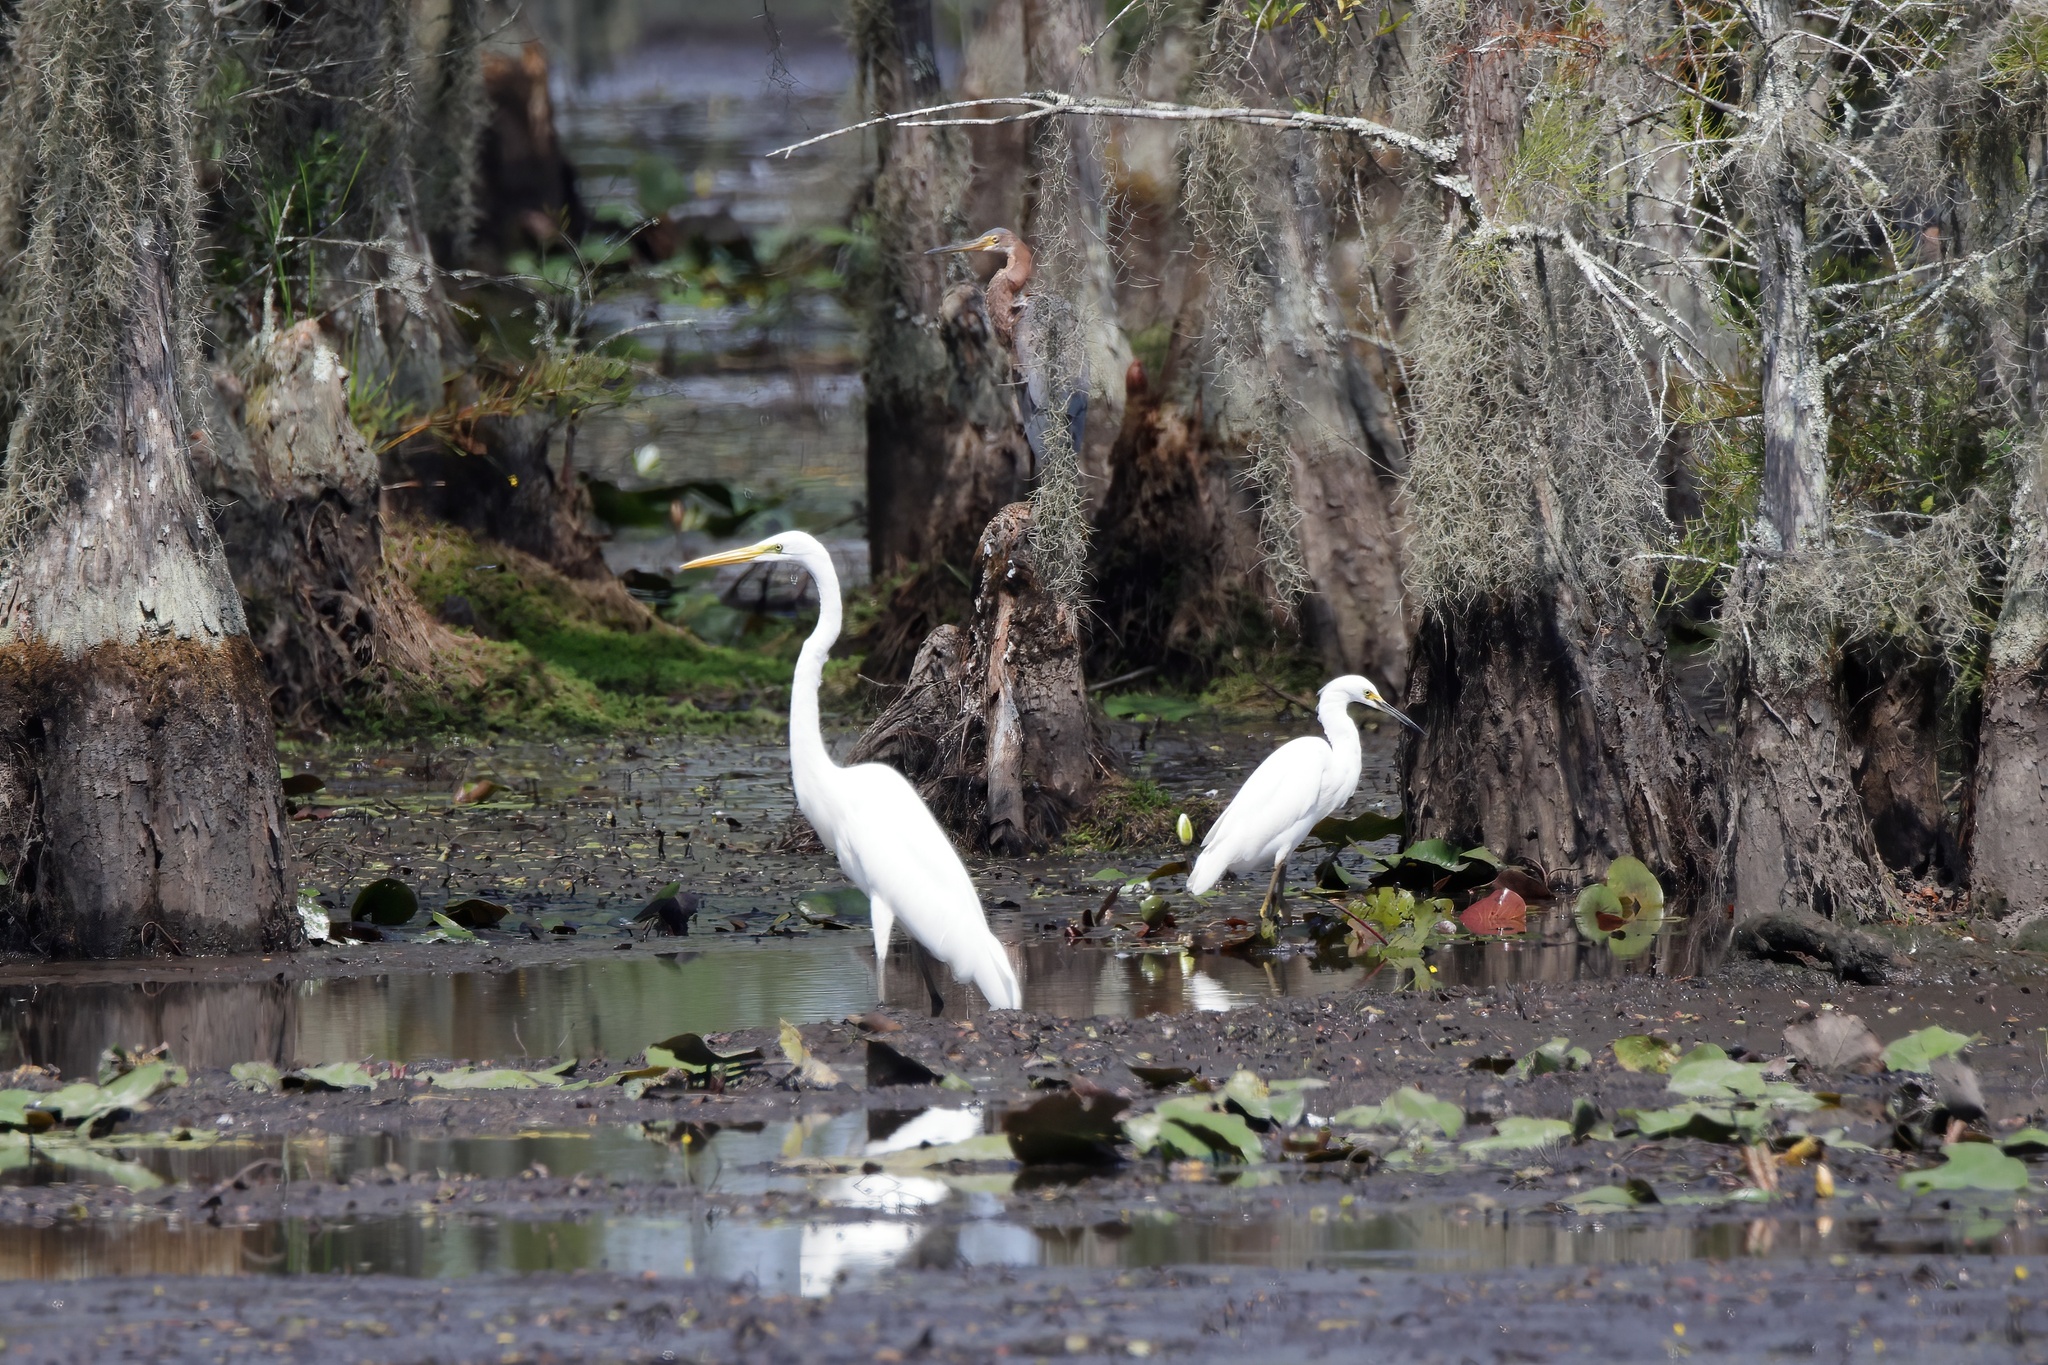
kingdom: Animalia
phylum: Chordata
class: Aves
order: Pelecaniformes
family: Ardeidae
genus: Egretta
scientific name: Egretta thula
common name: Snowy egret
